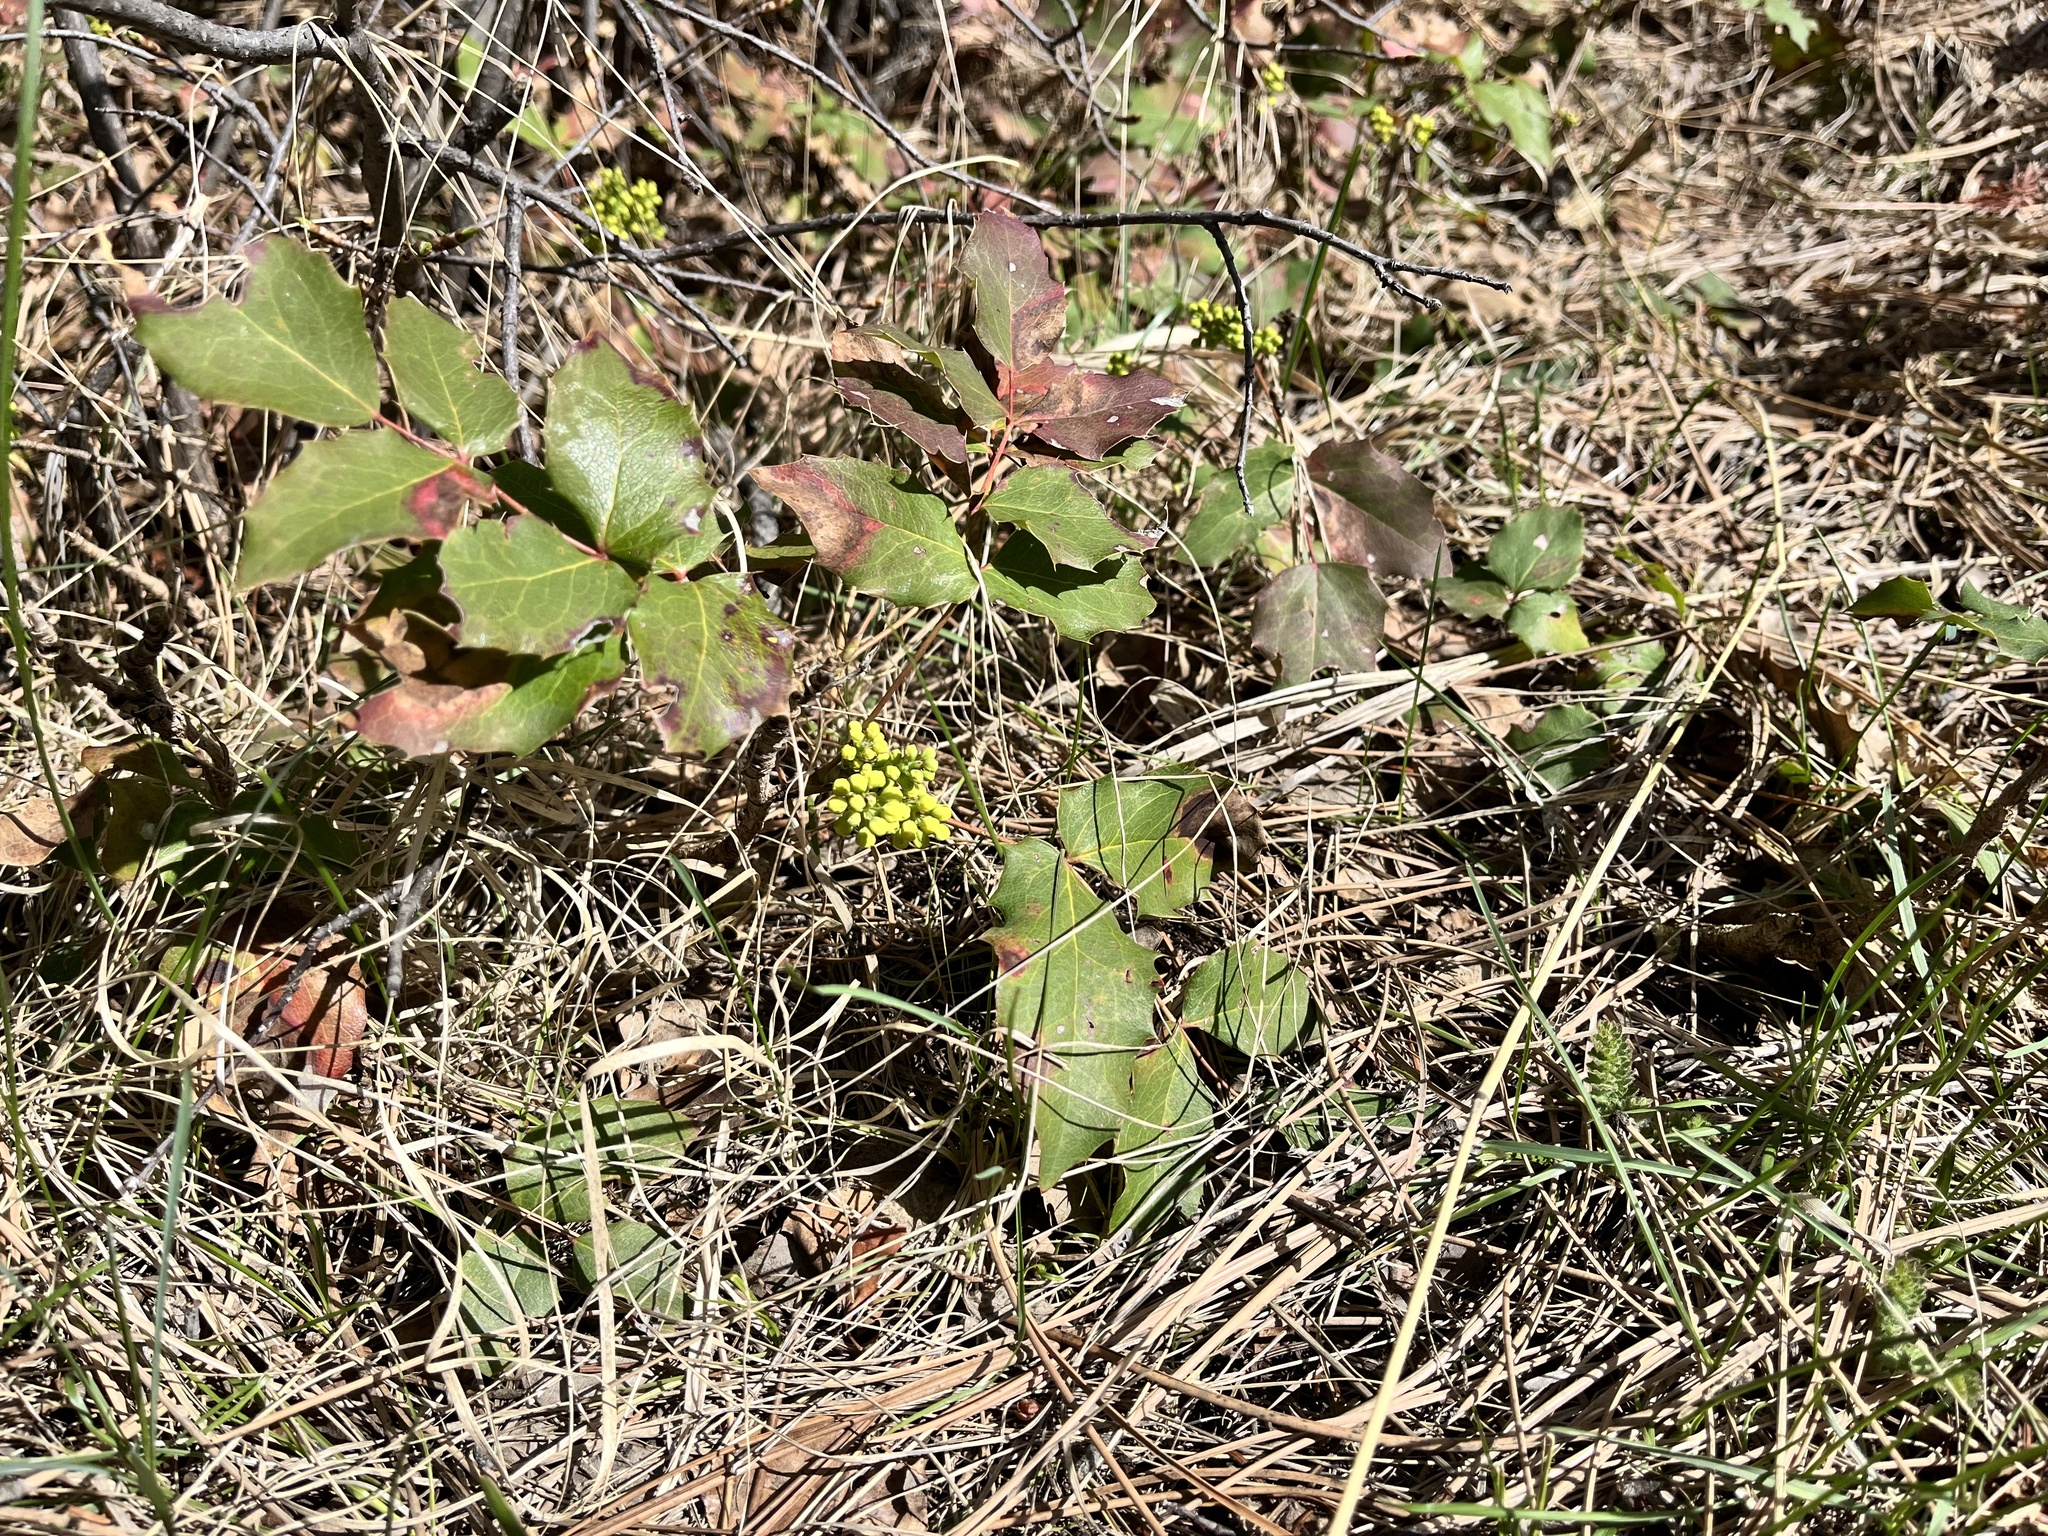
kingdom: Plantae
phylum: Tracheophyta
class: Magnoliopsida
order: Ranunculales
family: Berberidaceae
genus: Mahonia
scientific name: Mahonia repens
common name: Creeping oregon-grape
